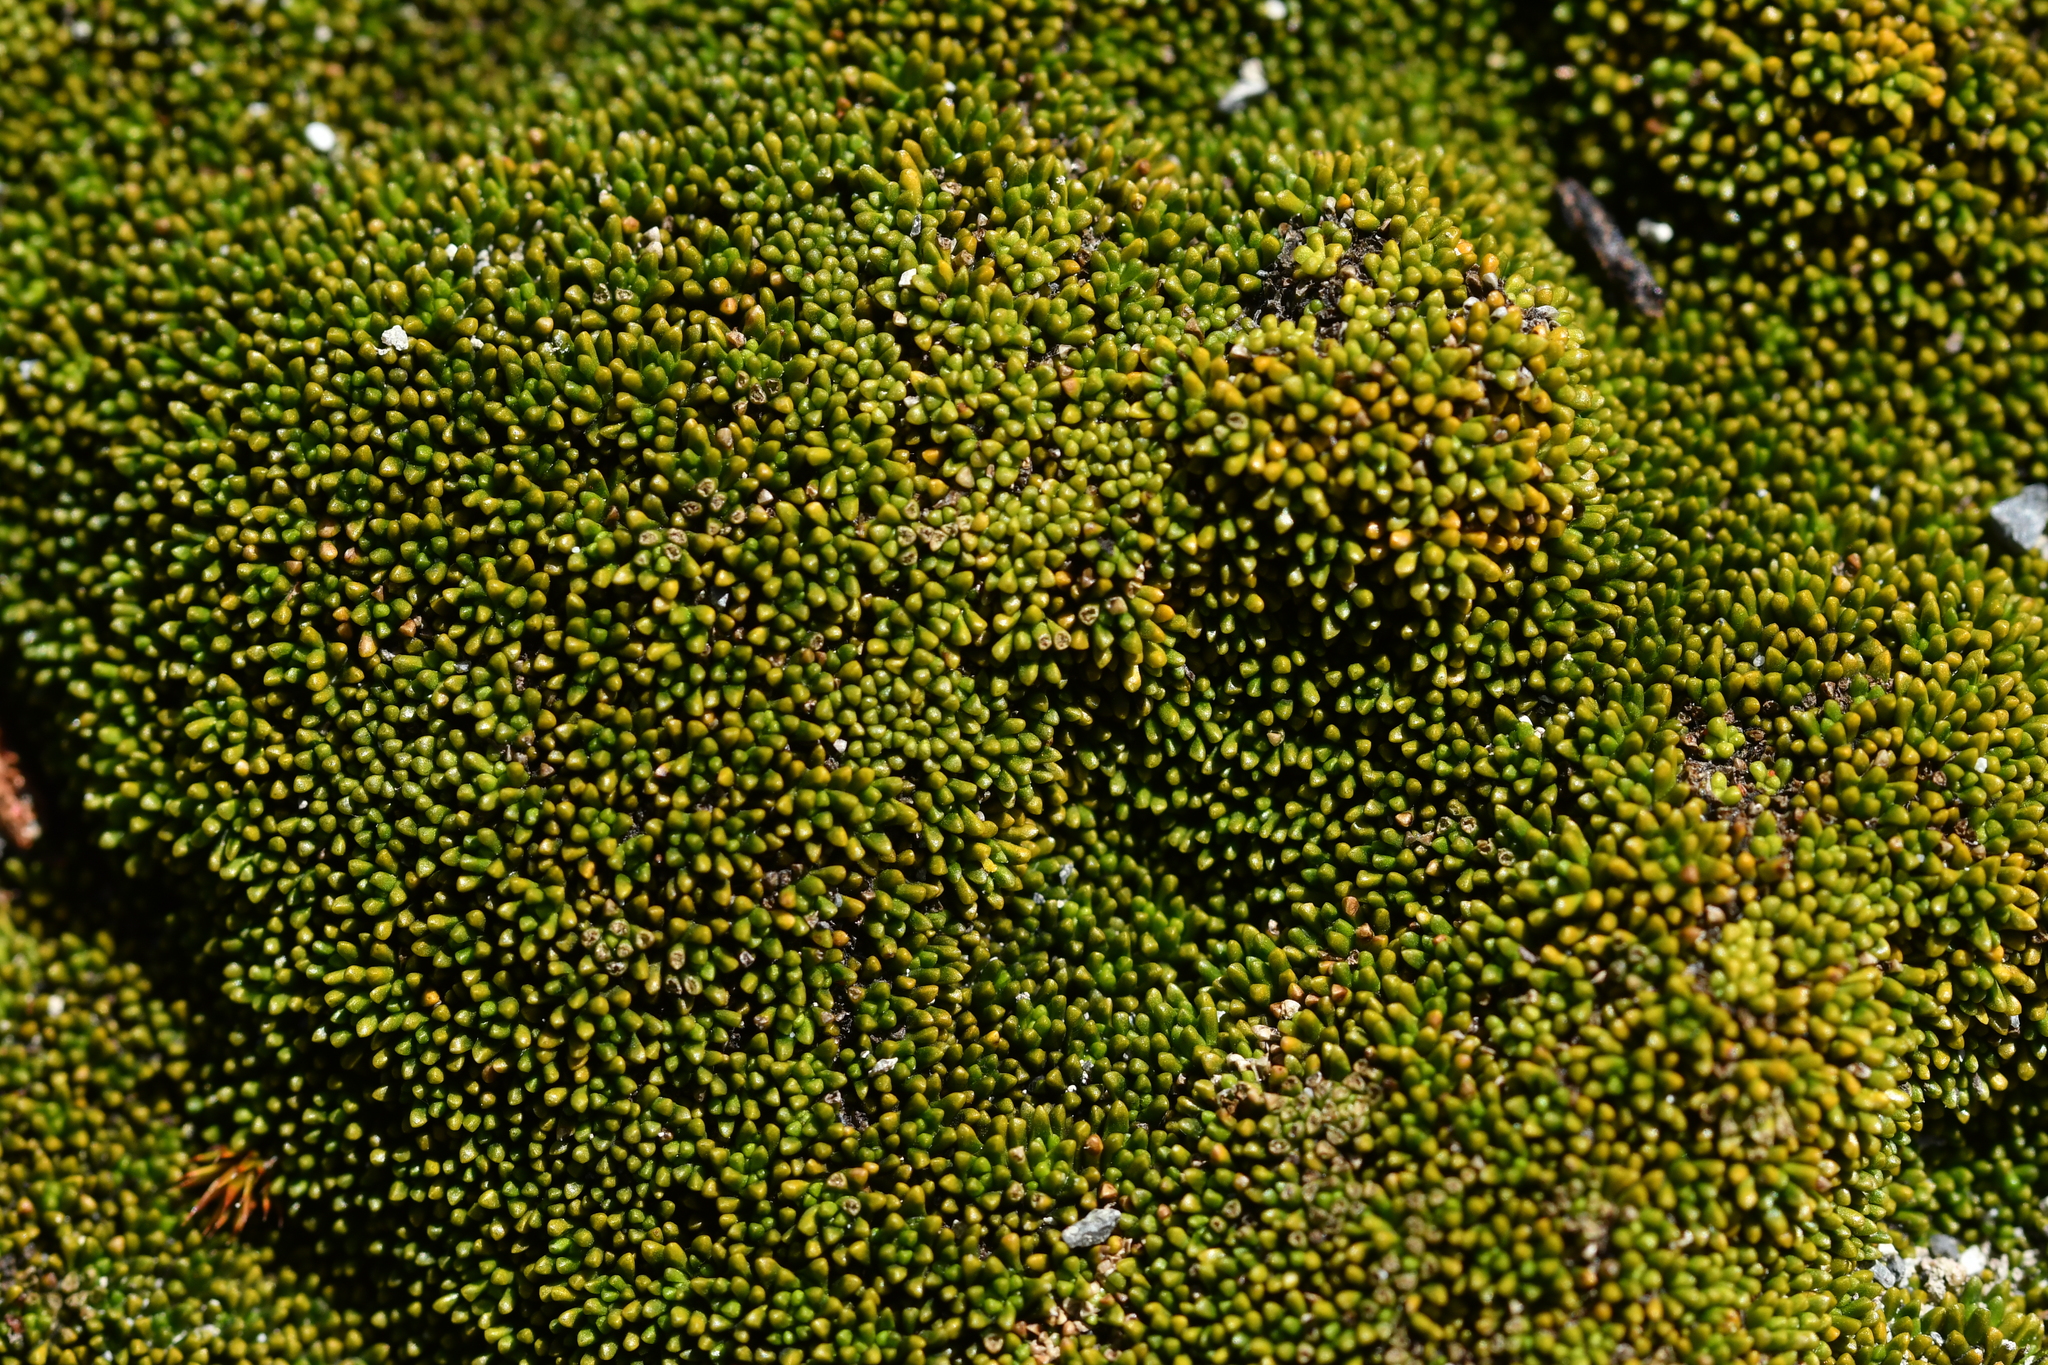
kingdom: Plantae
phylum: Tracheophyta
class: Magnoliopsida
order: Asterales
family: Stylidiaceae
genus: Phyllachne
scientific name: Phyllachne colensoi
